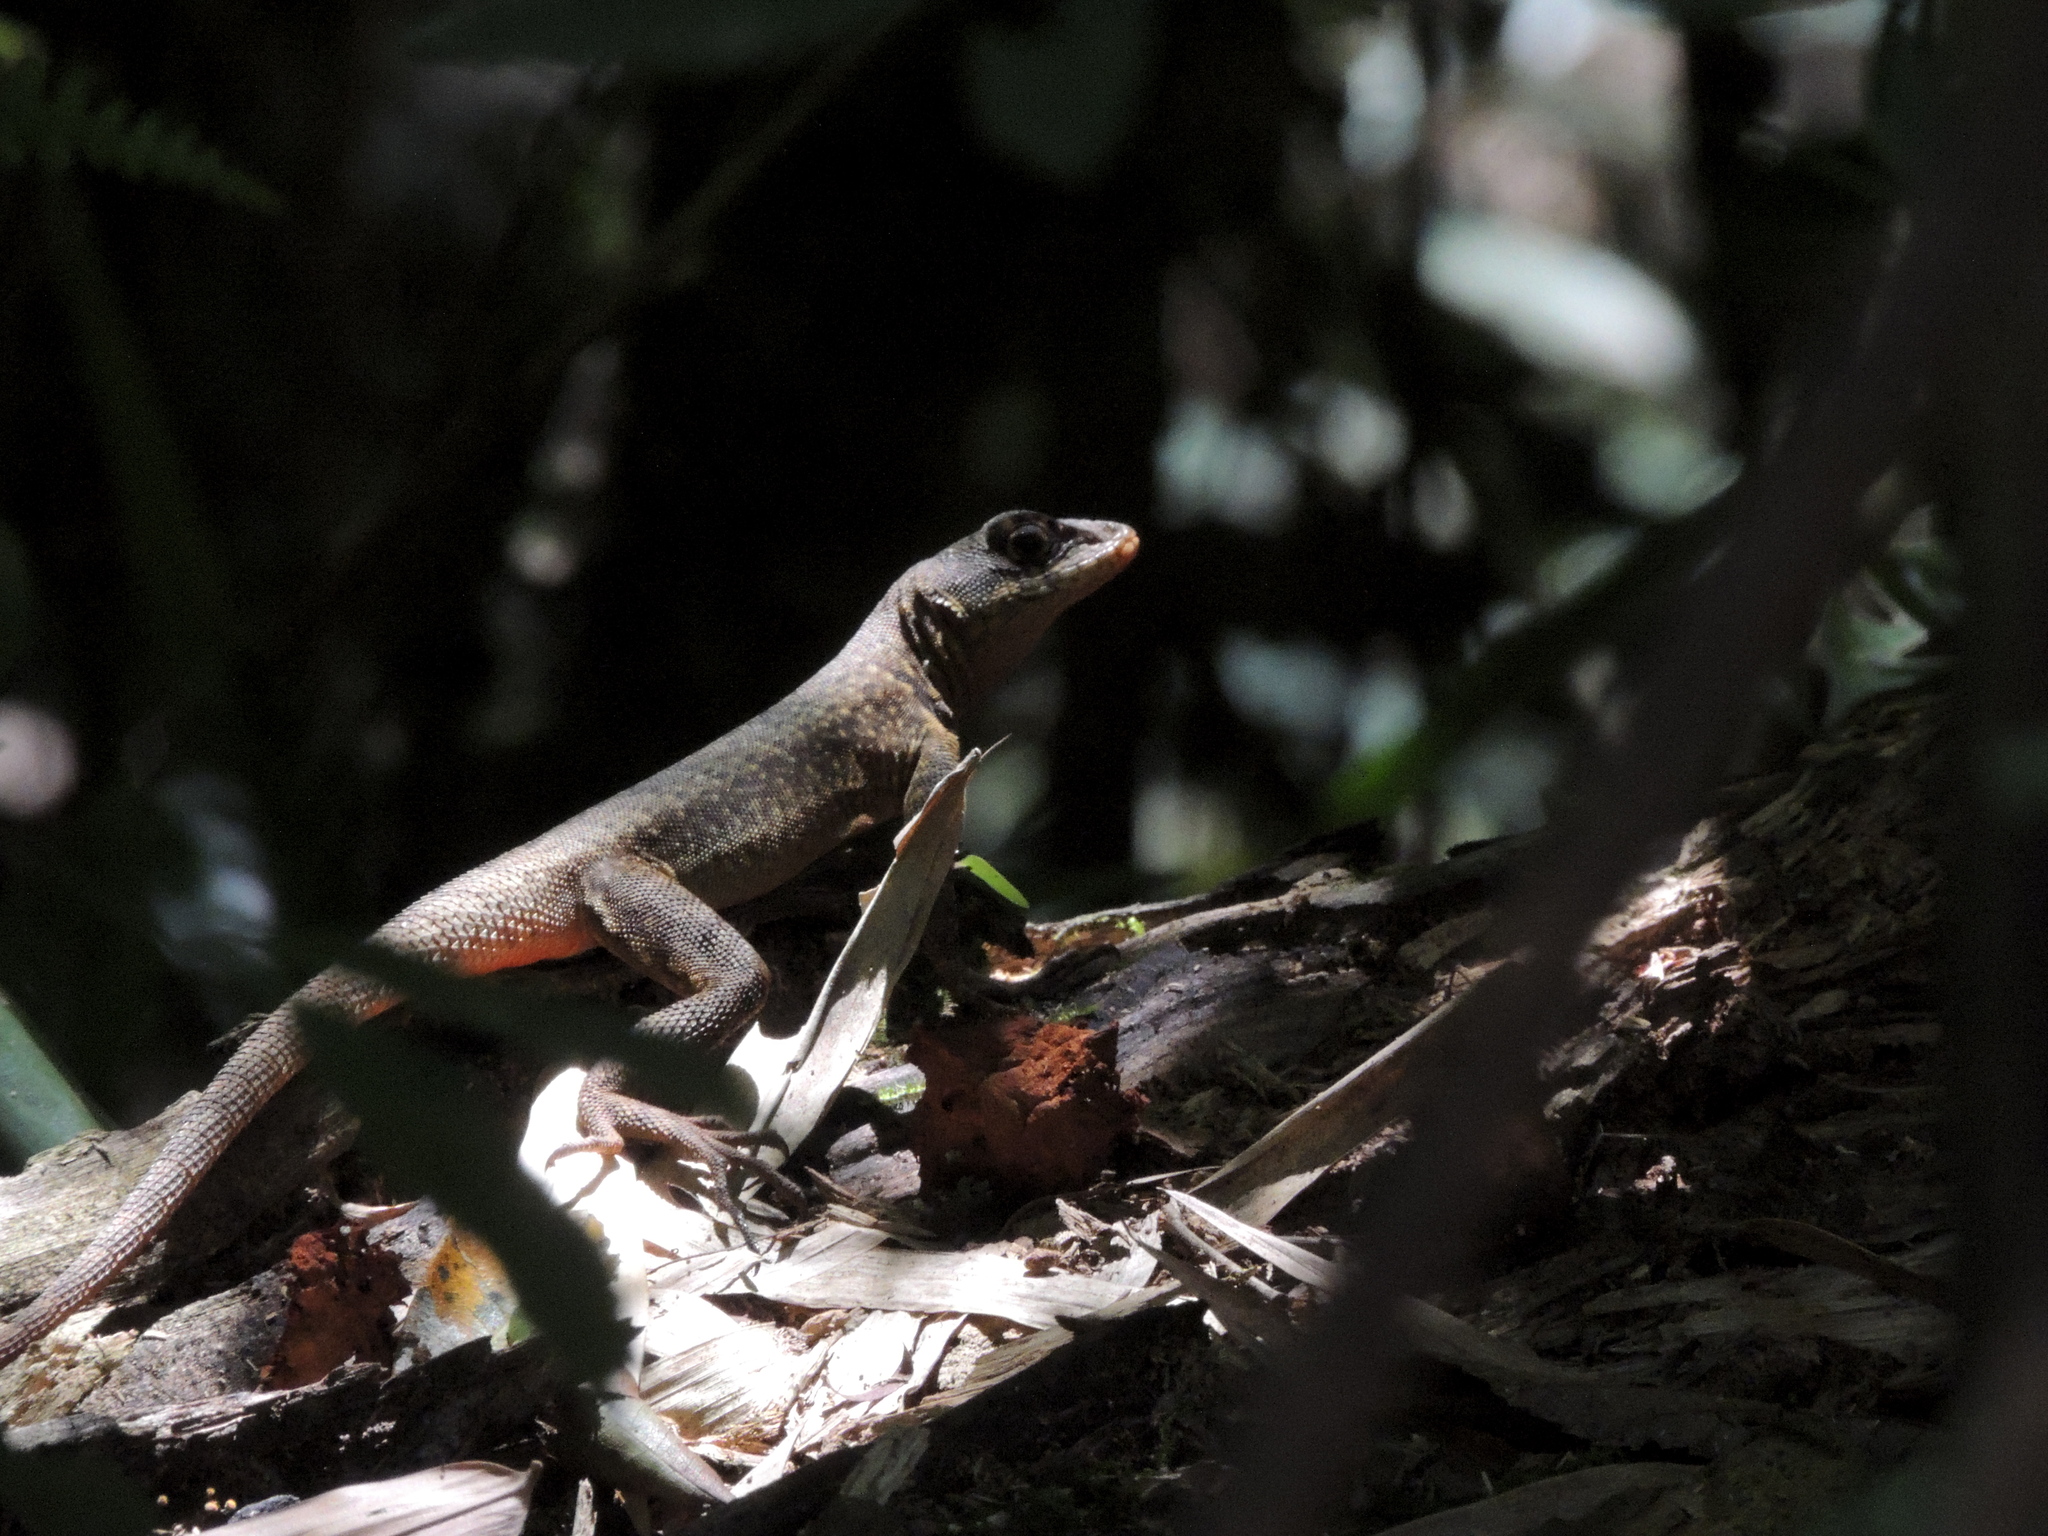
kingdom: Animalia
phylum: Chordata
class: Squamata
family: Tropiduridae
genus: Tropidurus
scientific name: Tropidurus catalanensis
